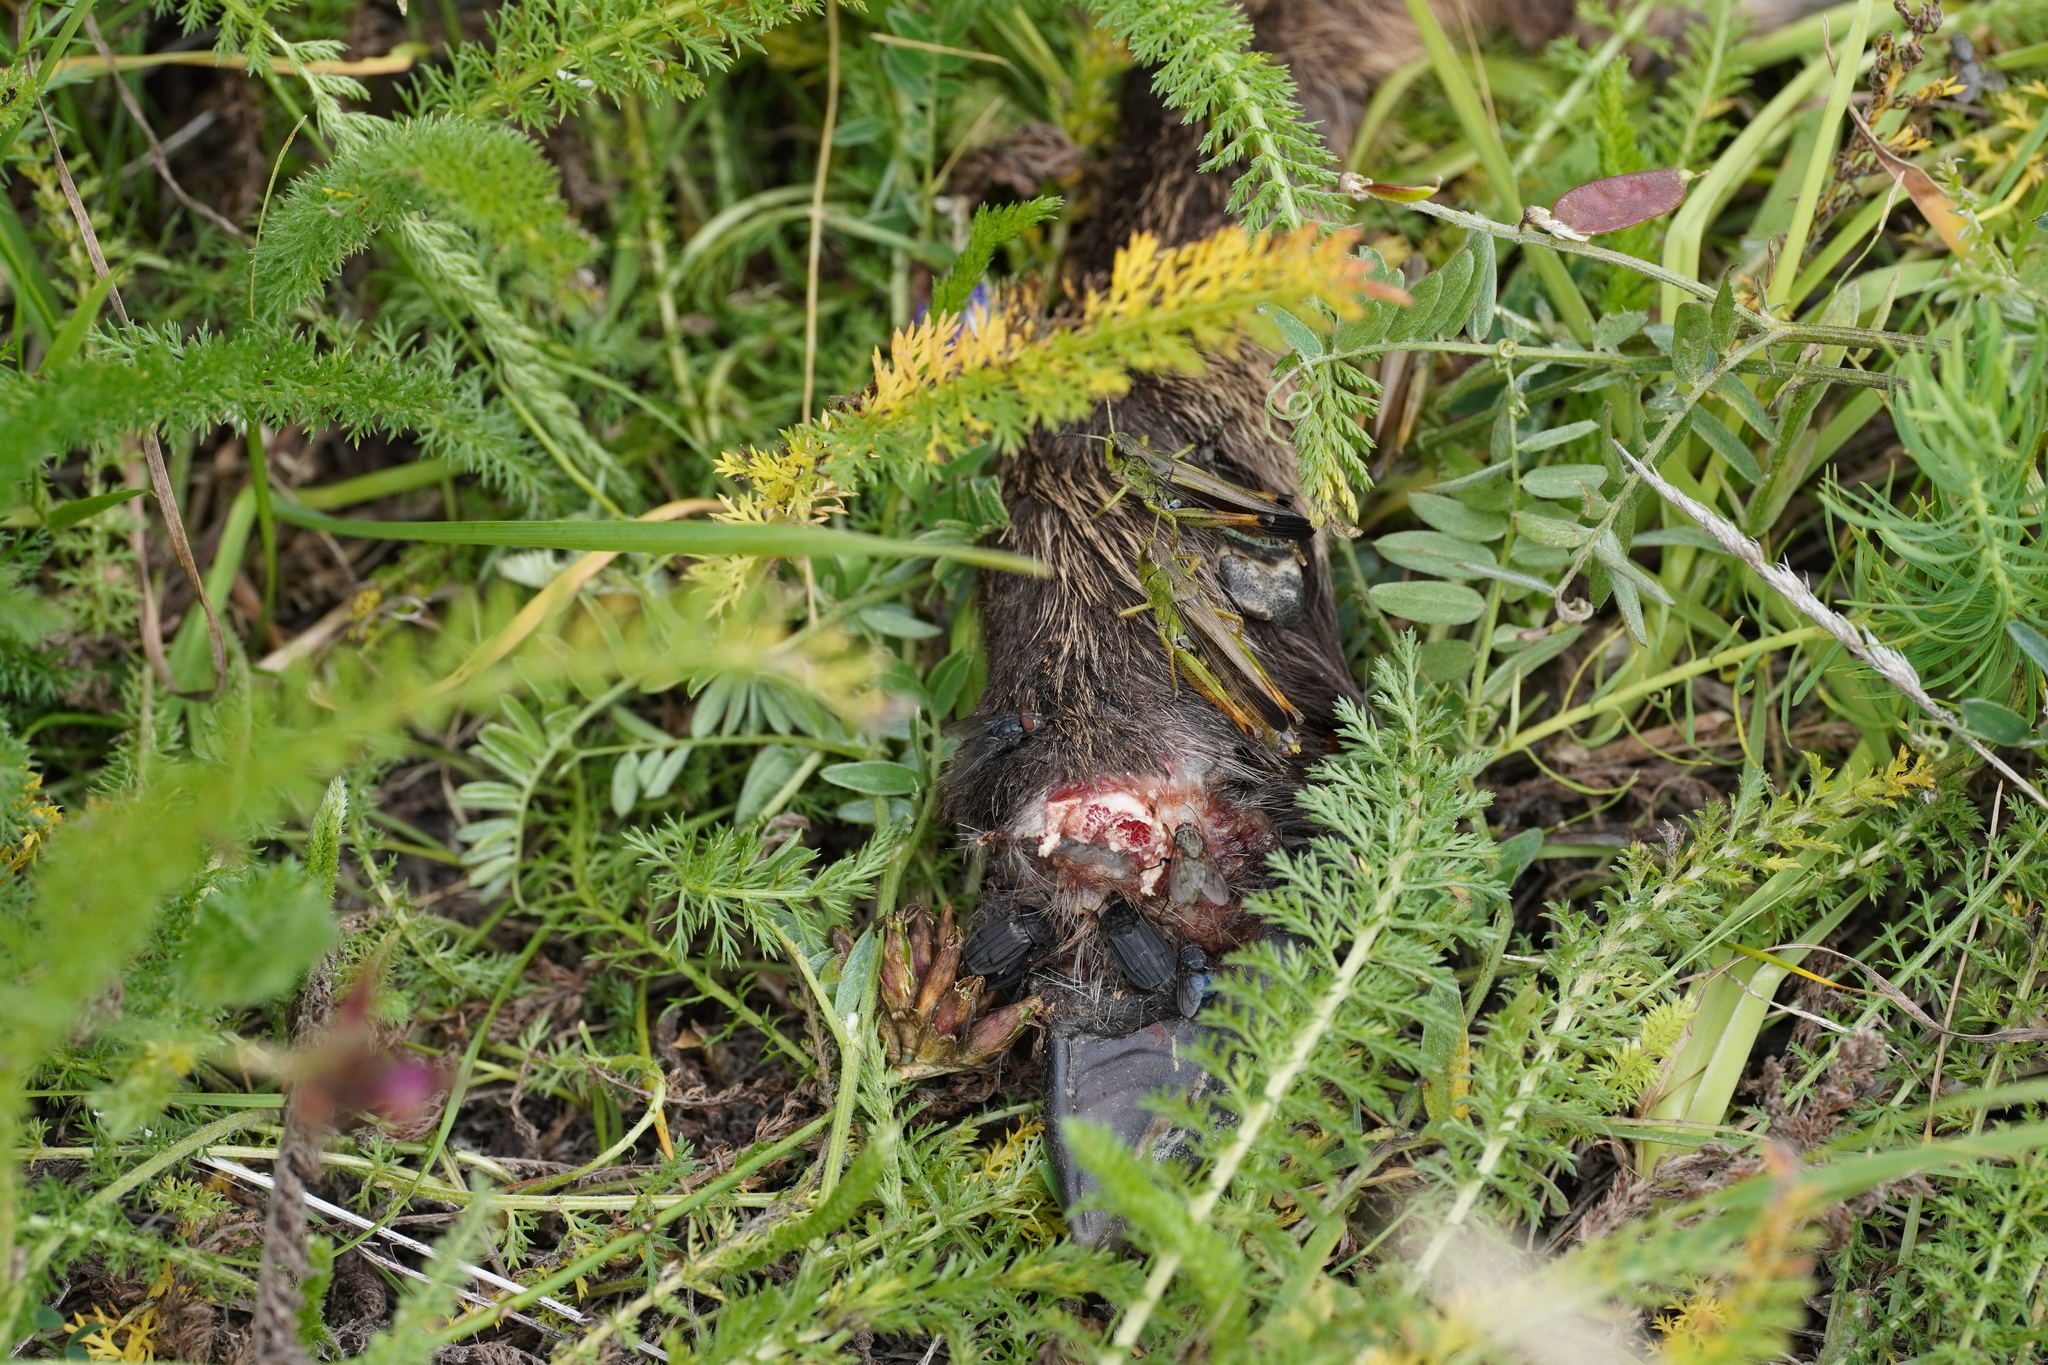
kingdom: Animalia
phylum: Arthropoda
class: Insecta
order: Orthoptera
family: Acrididae
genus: Stauroderus
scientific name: Stauroderus scalaris
